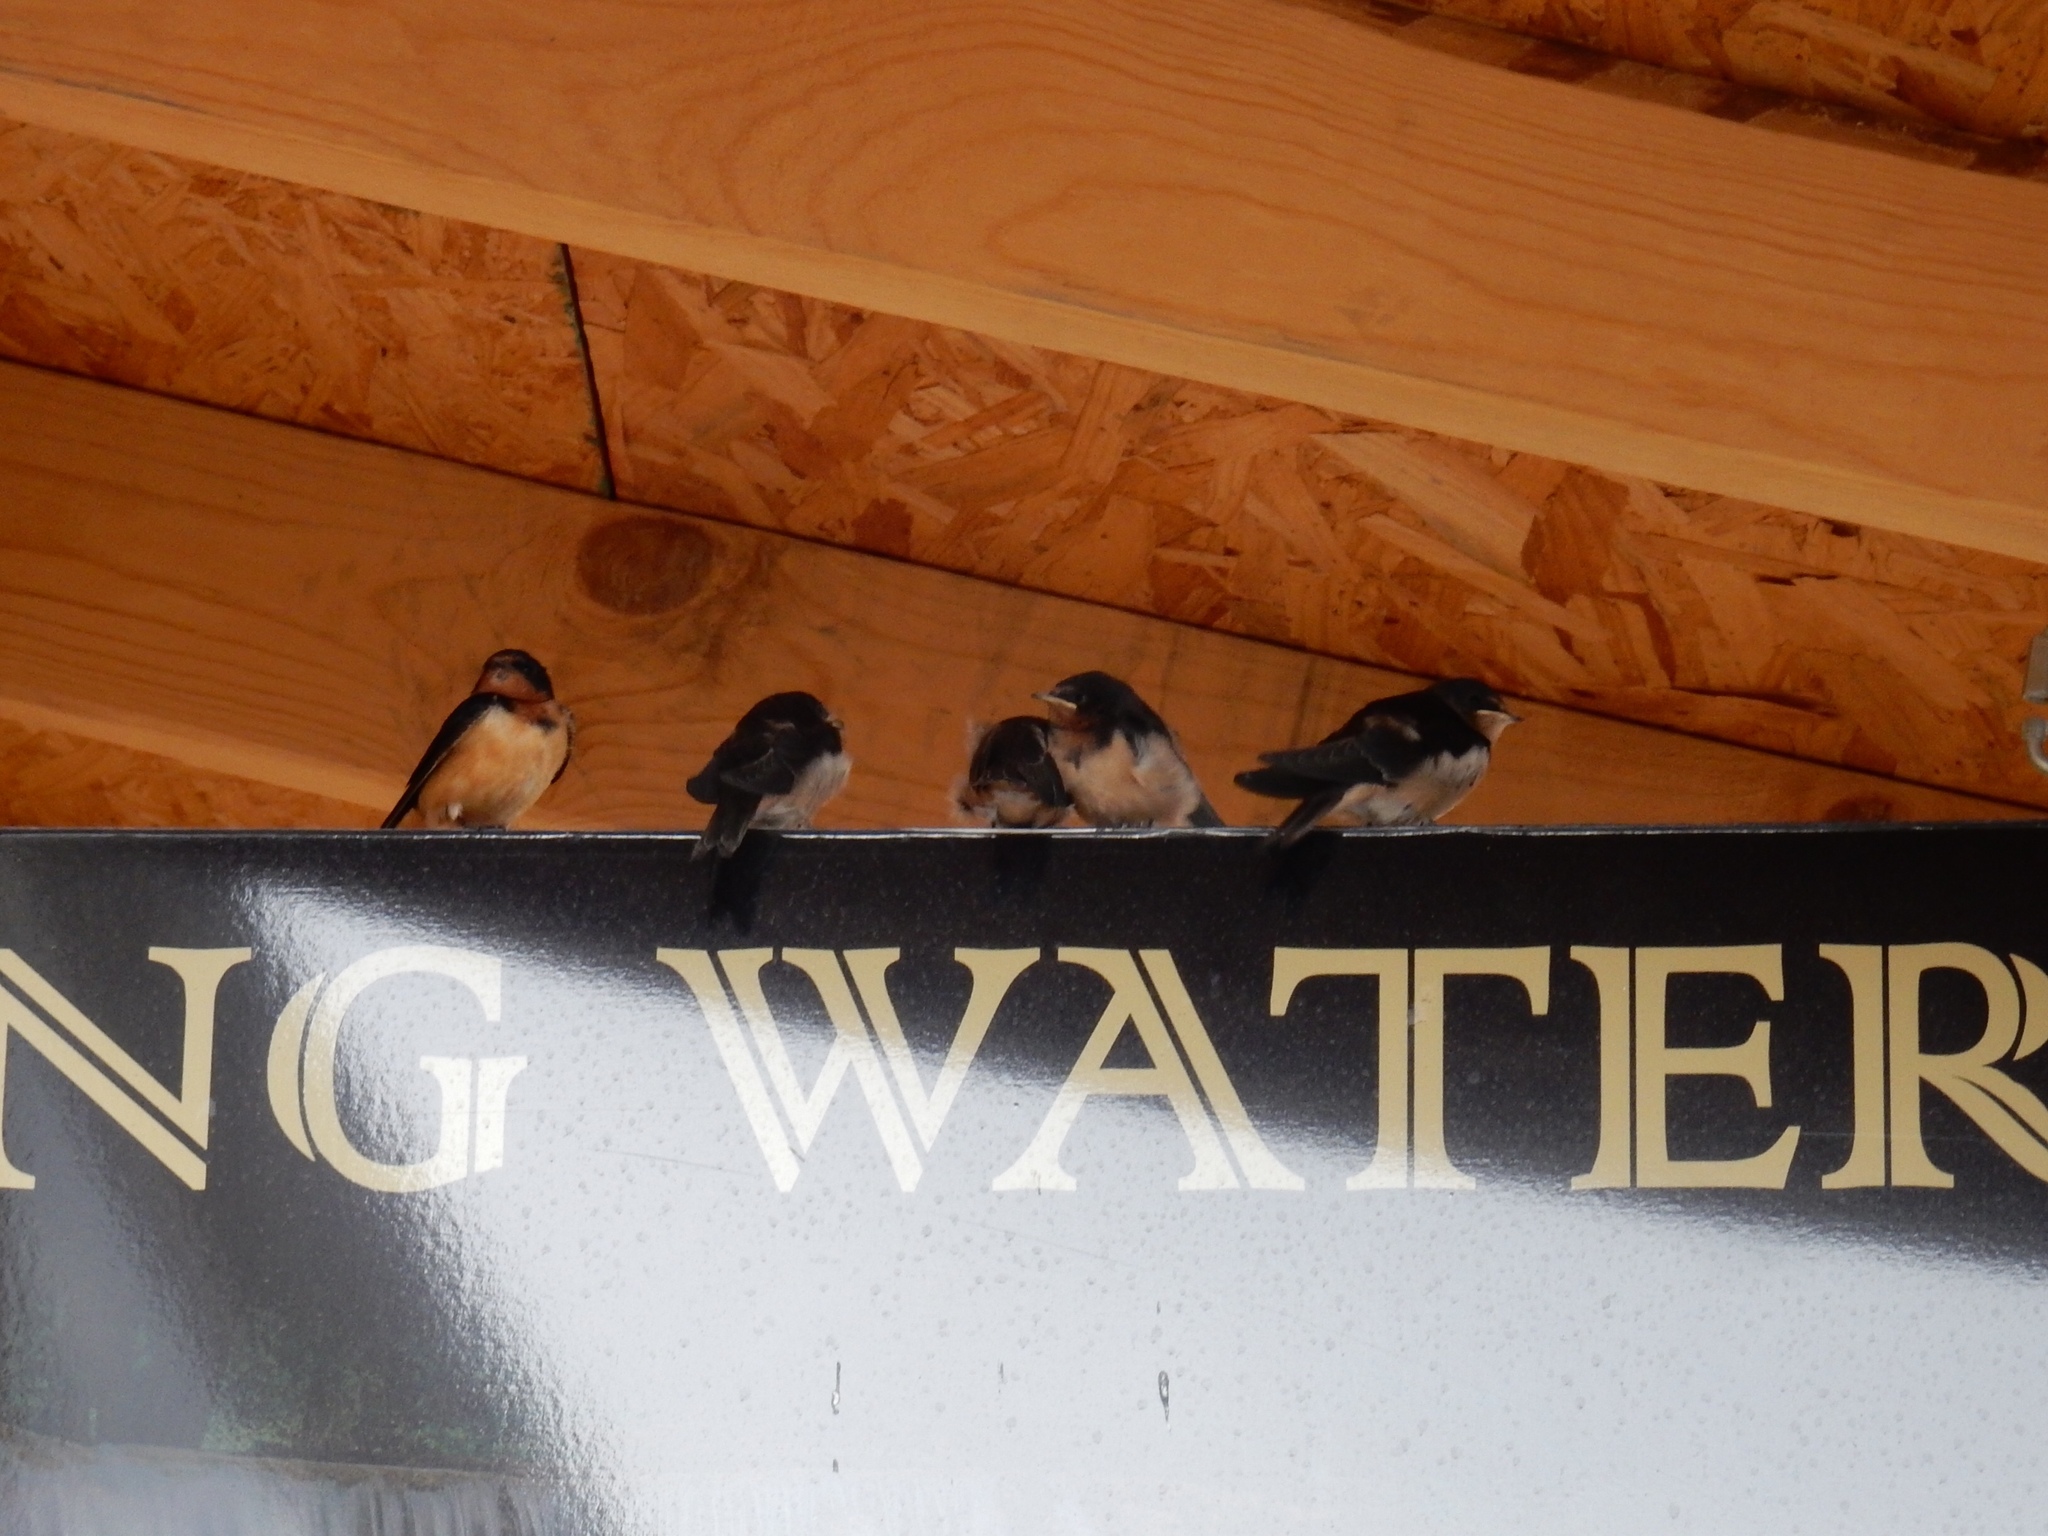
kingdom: Animalia
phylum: Chordata
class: Aves
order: Passeriformes
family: Hirundinidae
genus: Hirundo
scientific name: Hirundo rustica
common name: Barn swallow
